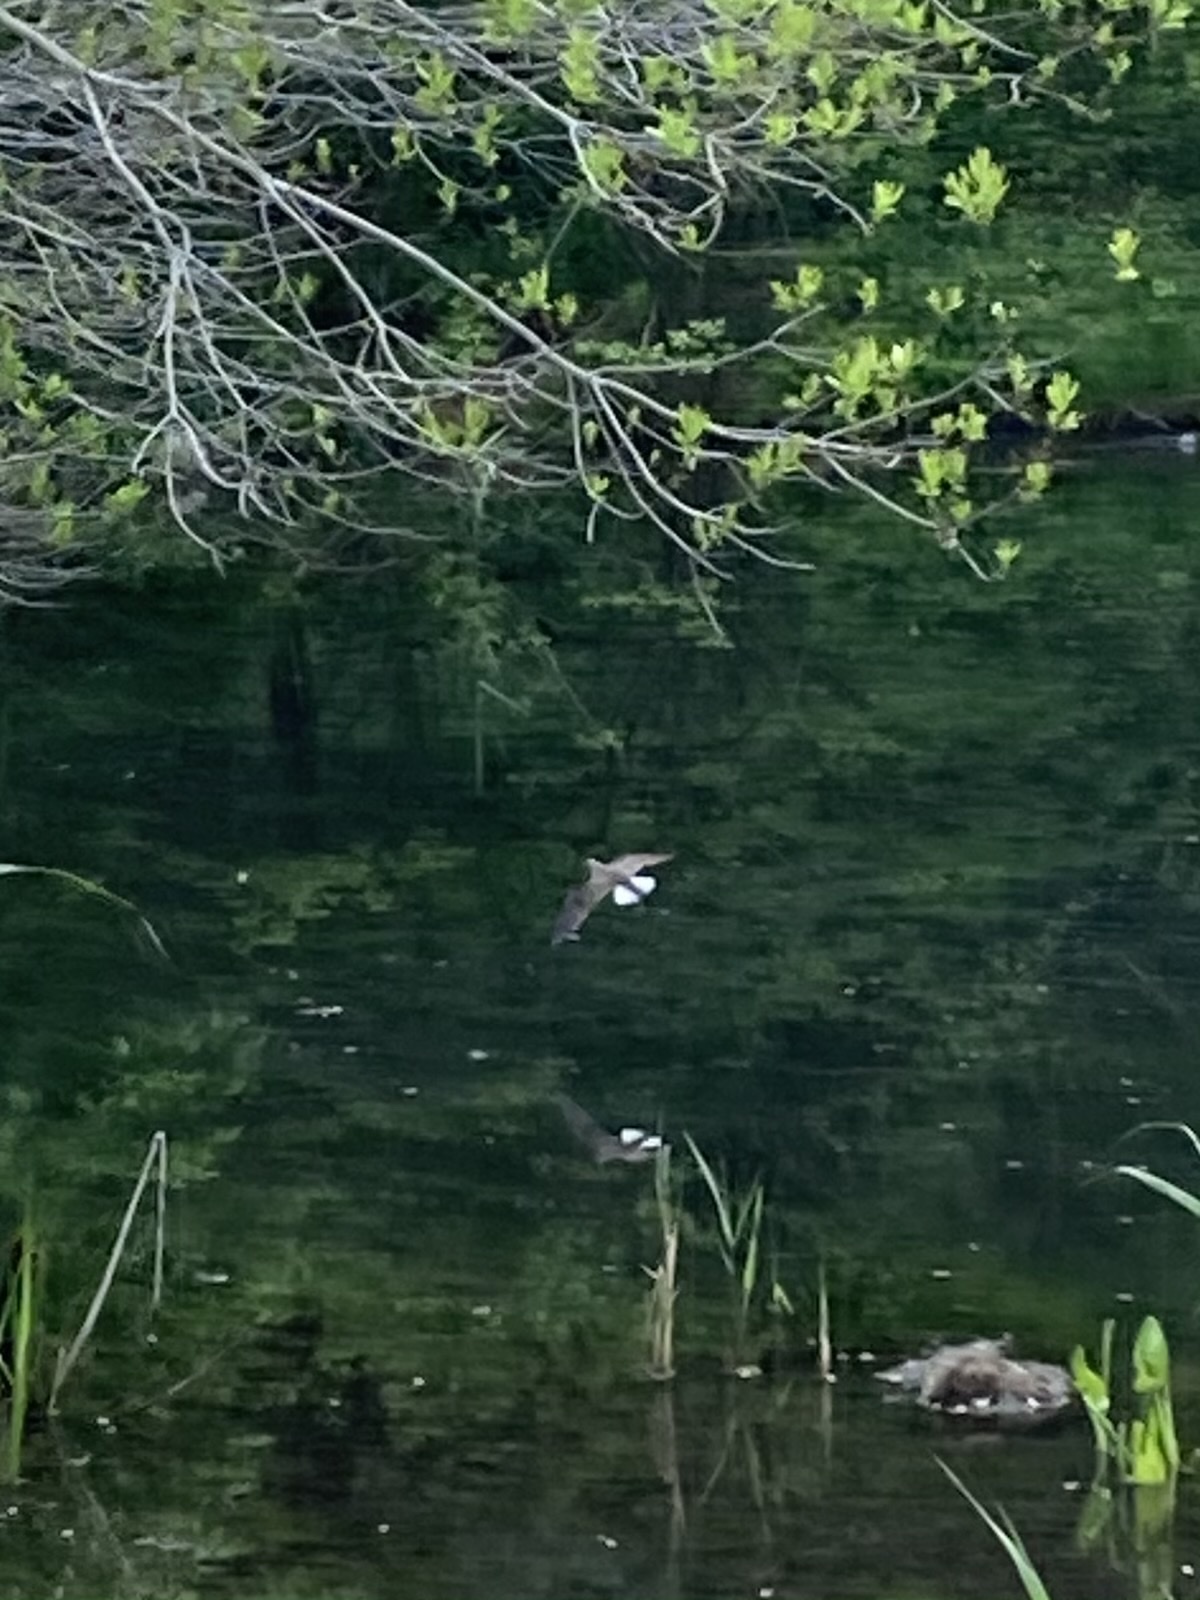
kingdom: Animalia
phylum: Chordata
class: Aves
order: Charadriiformes
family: Scolopacidae
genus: Tringa
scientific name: Tringa solitaria
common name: Solitary sandpiper
